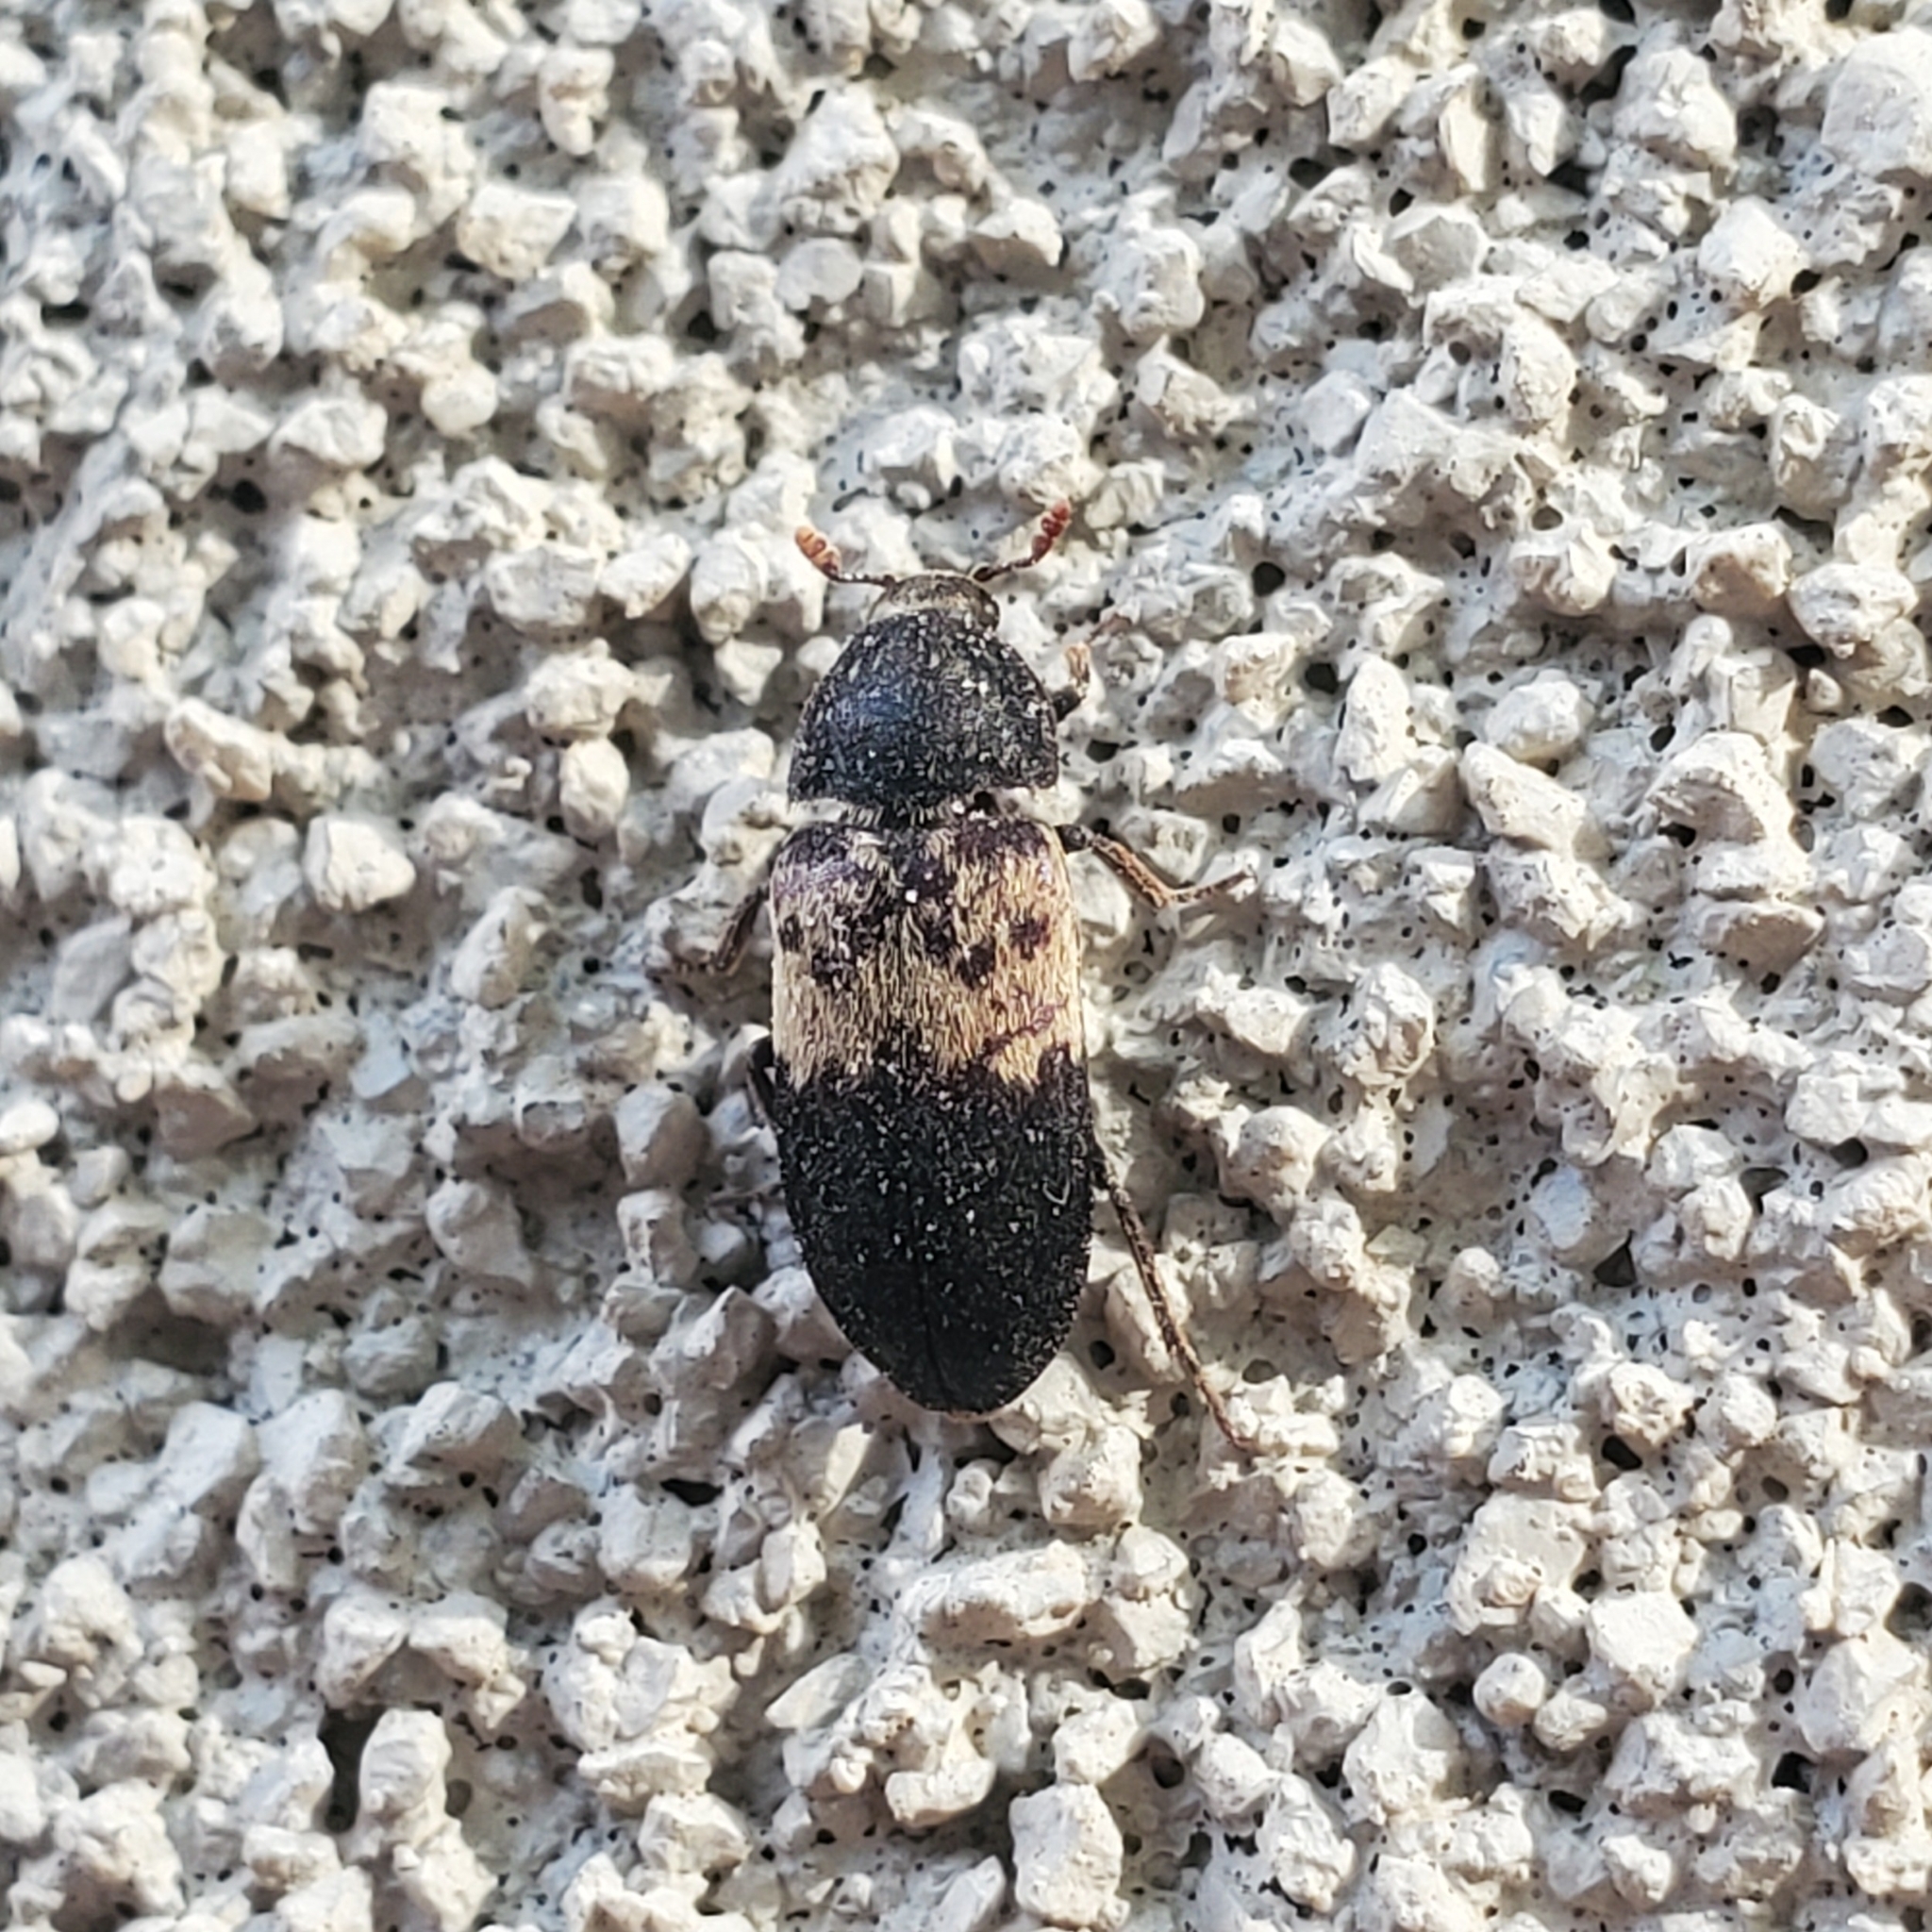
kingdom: Animalia
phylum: Arthropoda
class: Insecta
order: Coleoptera
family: Dermestidae
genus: Dermestes
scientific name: Dermestes lardarius
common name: Larder beetle
